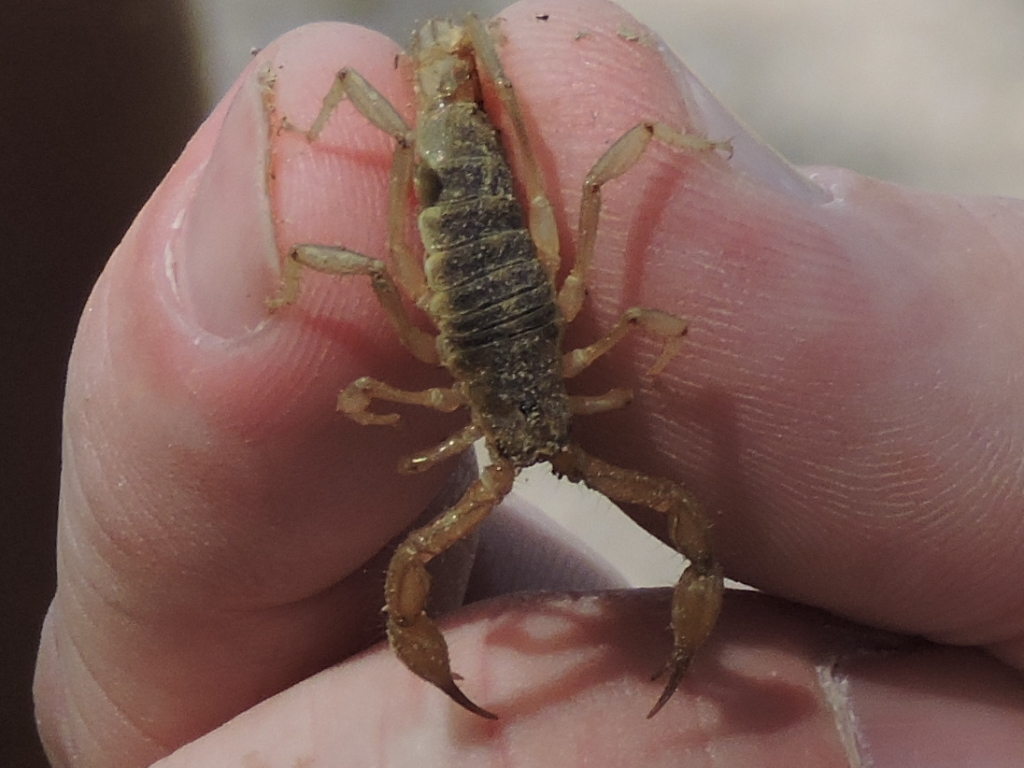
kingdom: Animalia
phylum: Arthropoda
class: Arachnida
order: Scorpiones
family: Vaejovidae
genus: Chihuahuanus
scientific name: Chihuahuanus coahuilae
